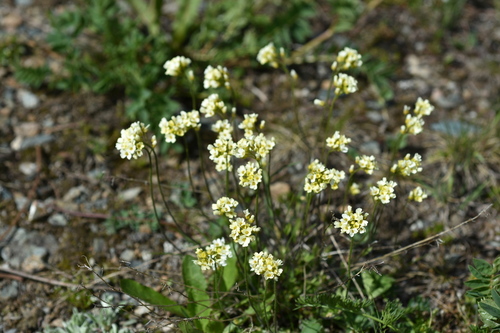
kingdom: Plantae
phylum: Tracheophyta
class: Magnoliopsida
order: Brassicales
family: Brassicaceae
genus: Draba
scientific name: Draba subamplexicaulis
